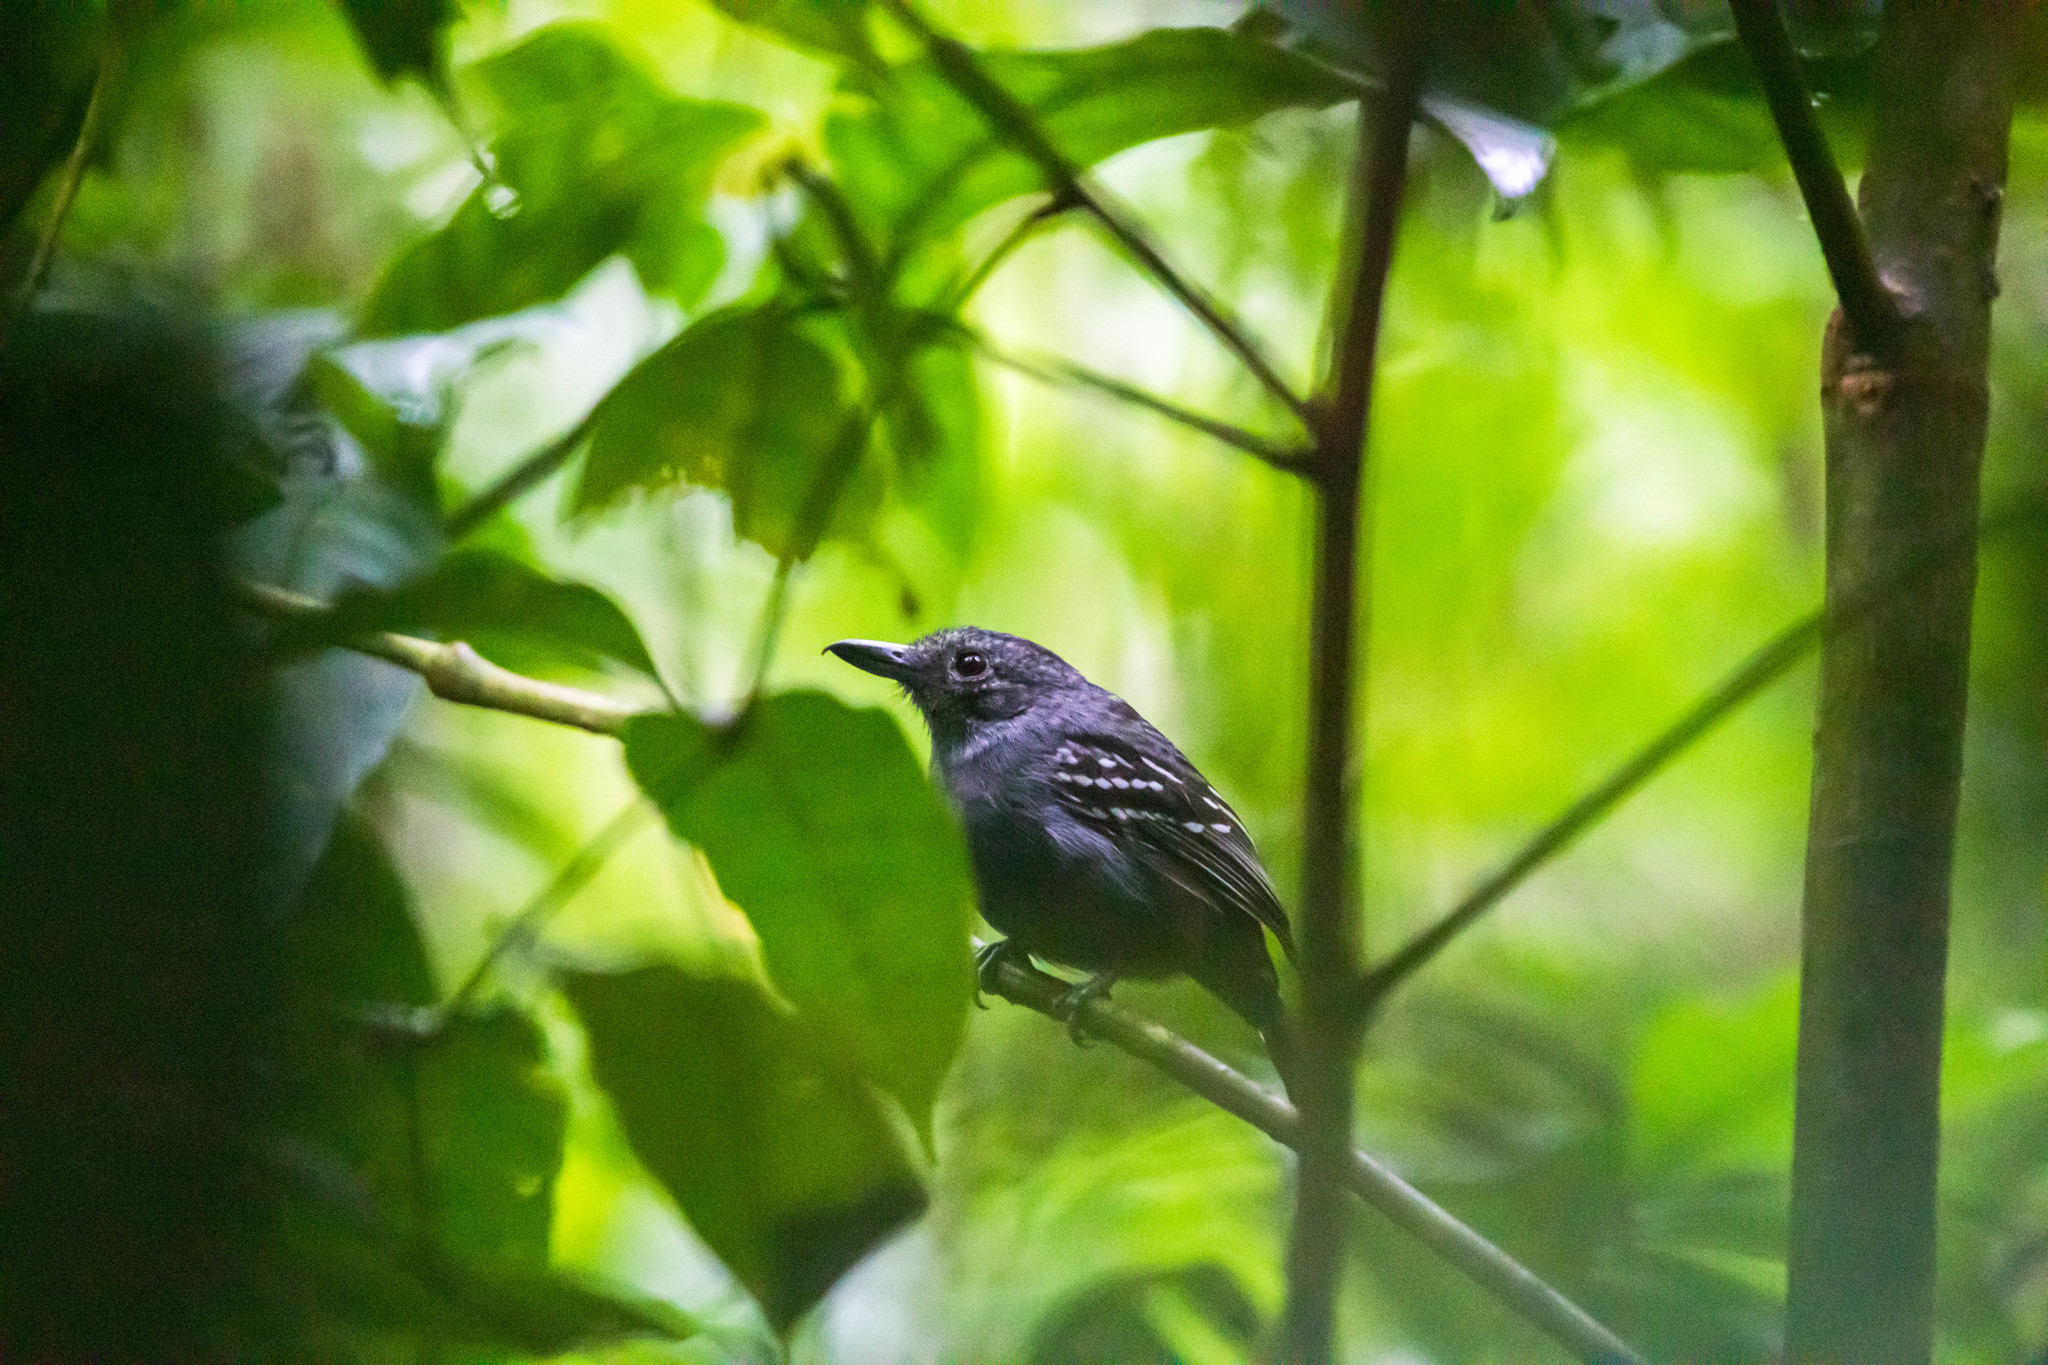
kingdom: Animalia
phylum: Chordata
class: Aves
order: Passeriformes
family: Thamnophilidae
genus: Thamnophilus
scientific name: Thamnophilus atrinucha
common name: Black-crowned antshrike
